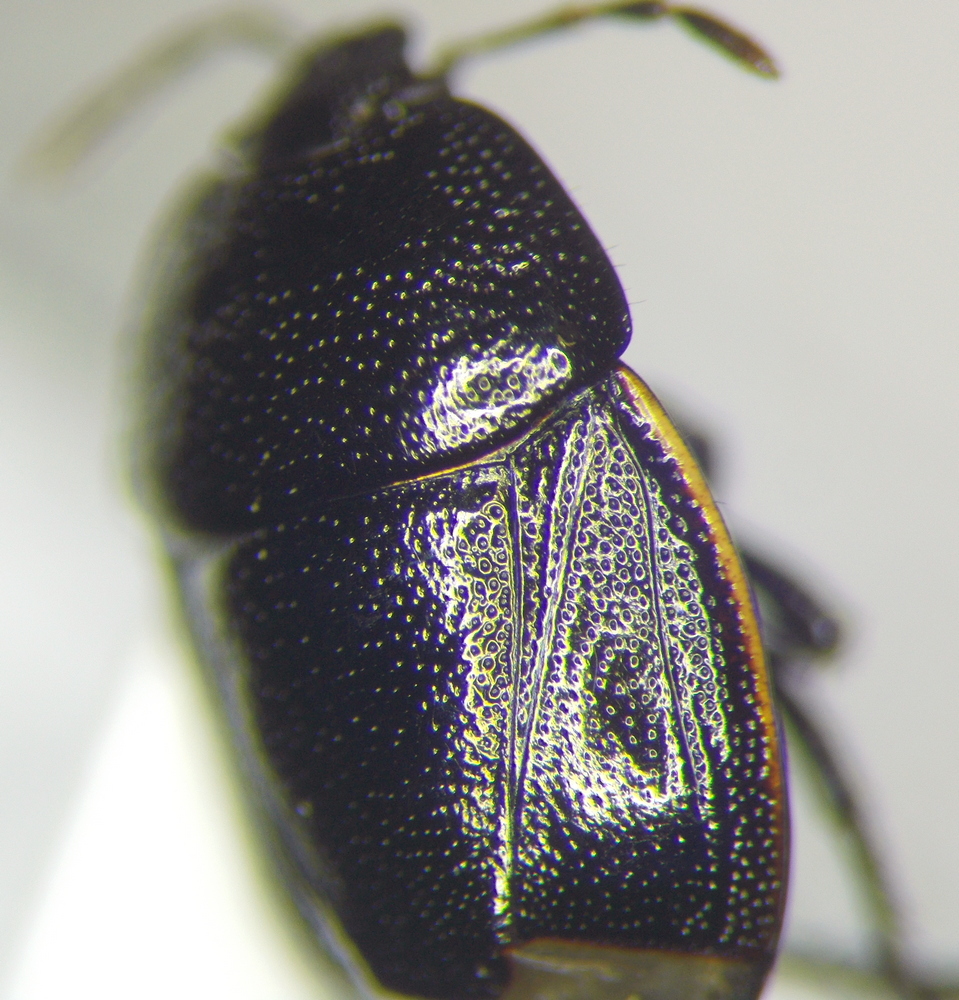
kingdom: Animalia
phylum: Arthropoda
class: Insecta
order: Hemiptera
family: Cydnidae
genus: Legnotus
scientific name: Legnotus picipes
